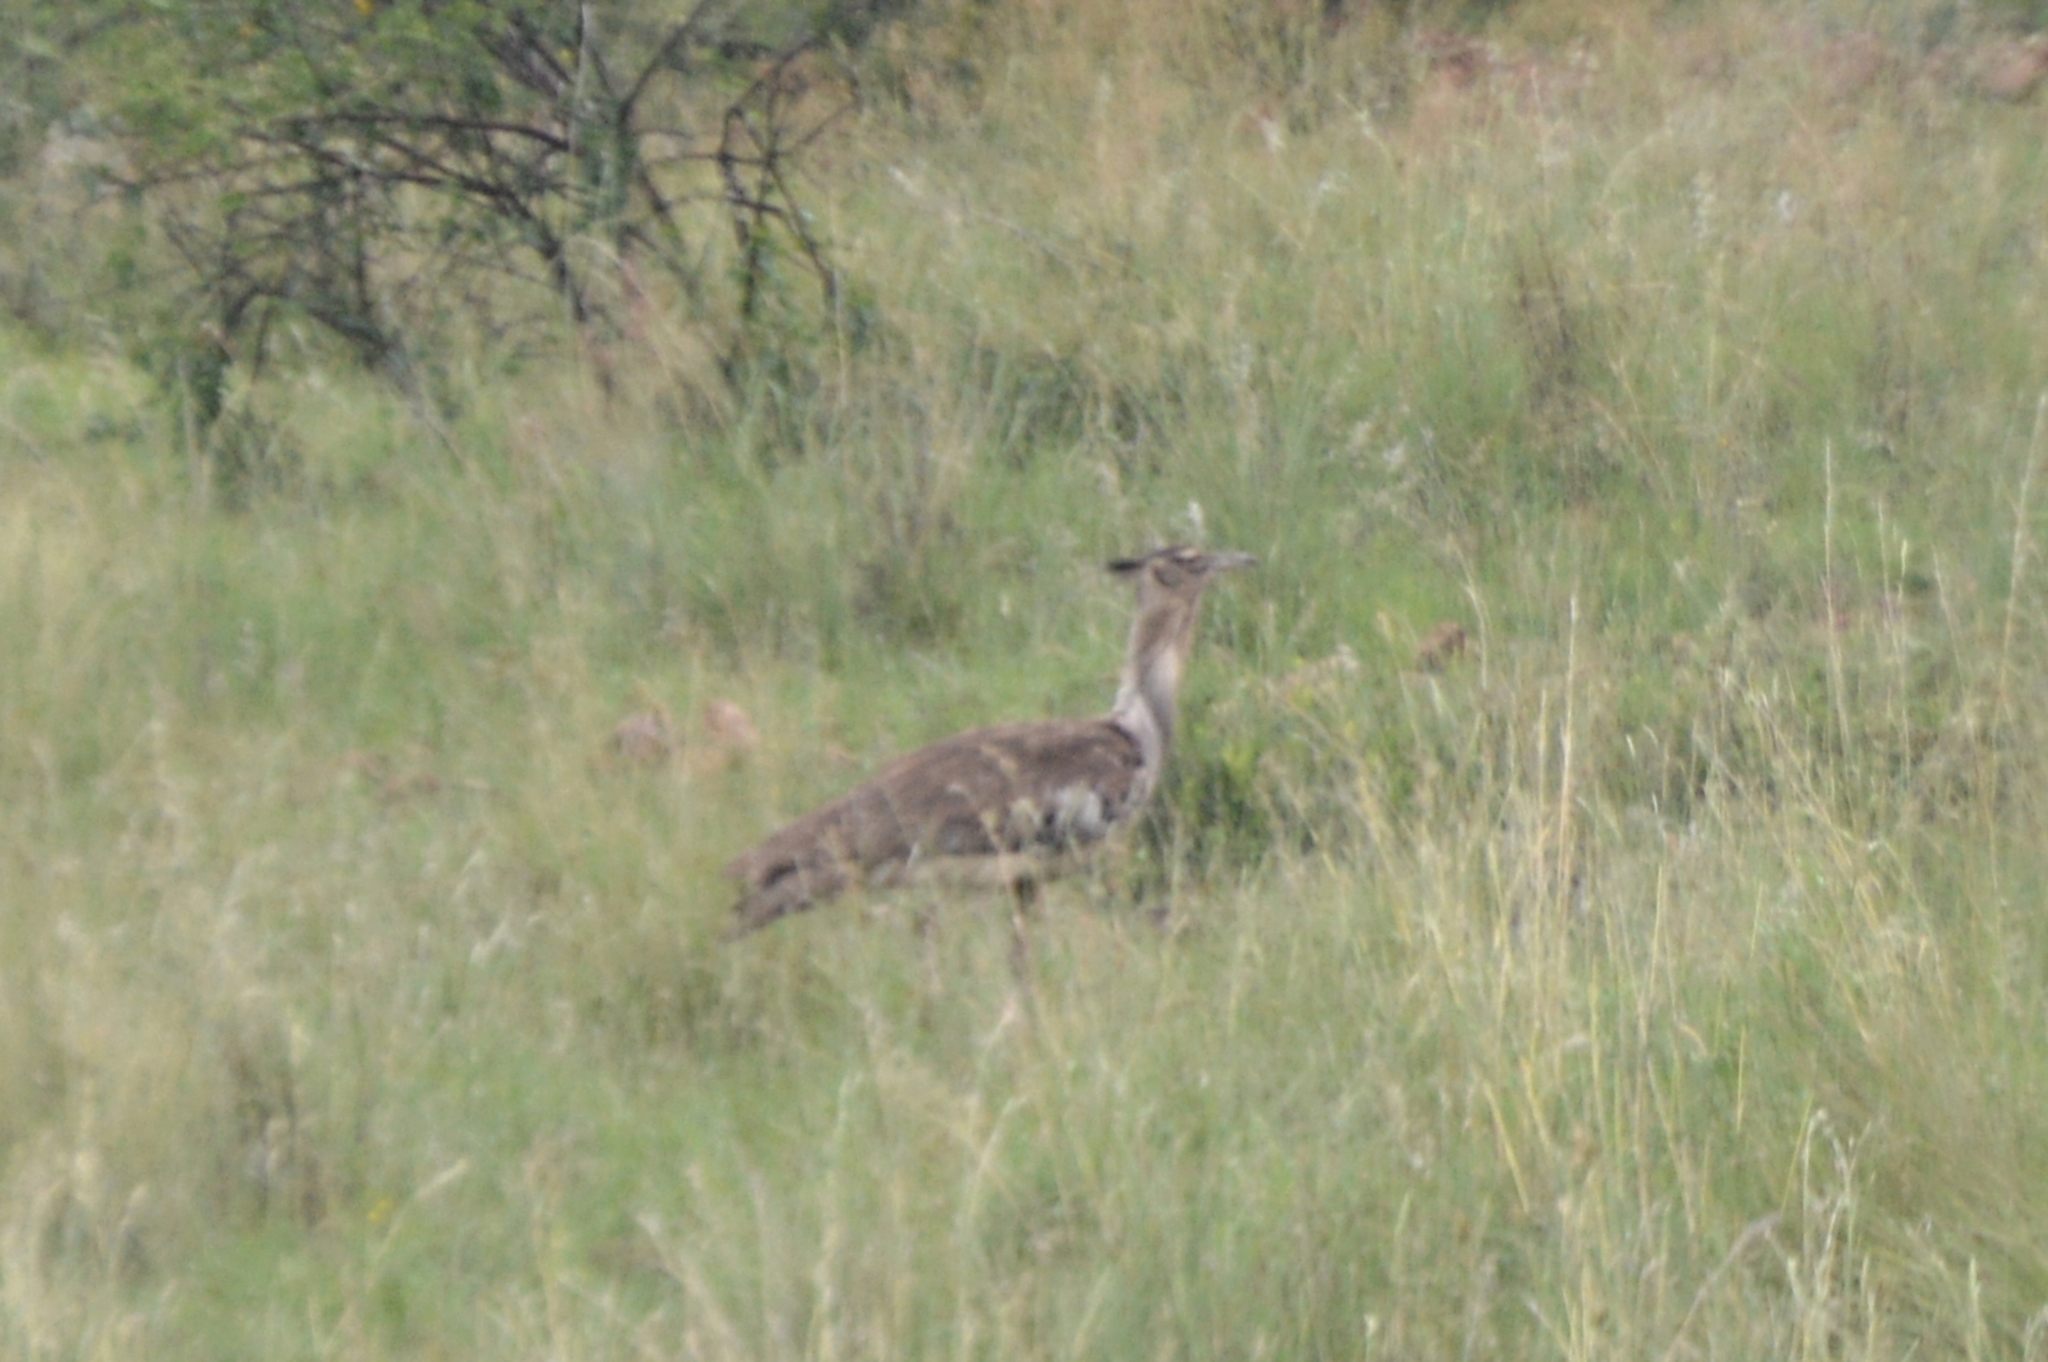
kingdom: Animalia
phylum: Chordata
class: Aves
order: Otidiformes
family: Otididae
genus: Ardeotis
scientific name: Ardeotis kori
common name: Kori bustard
